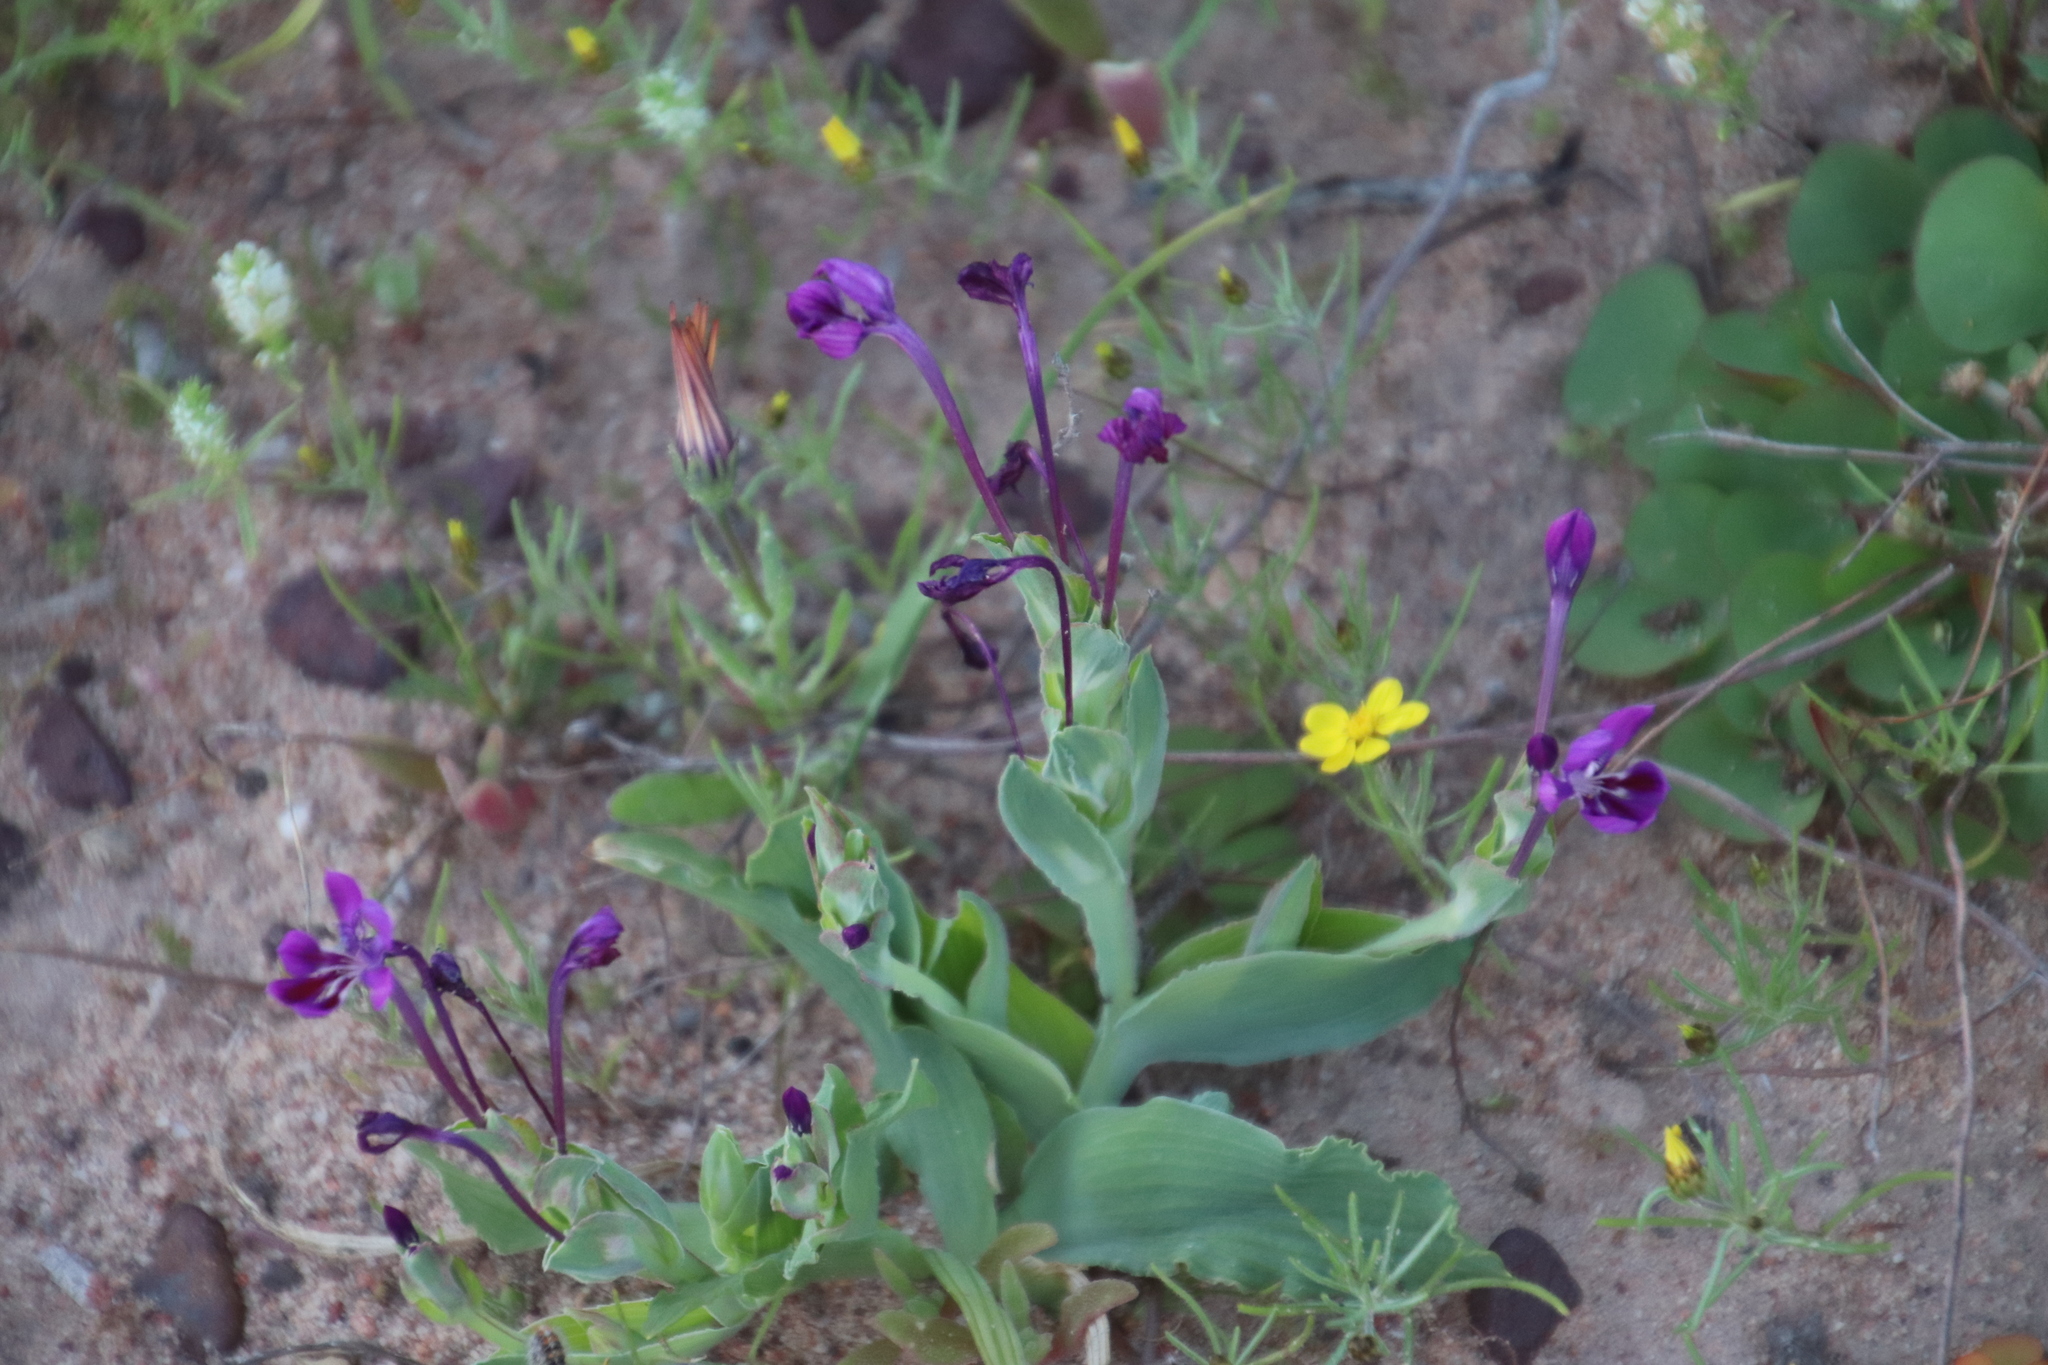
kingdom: Plantae
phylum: Tracheophyta
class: Liliopsida
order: Asparagales
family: Iridaceae
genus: Lapeirousia
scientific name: Lapeirousia jacquinii
